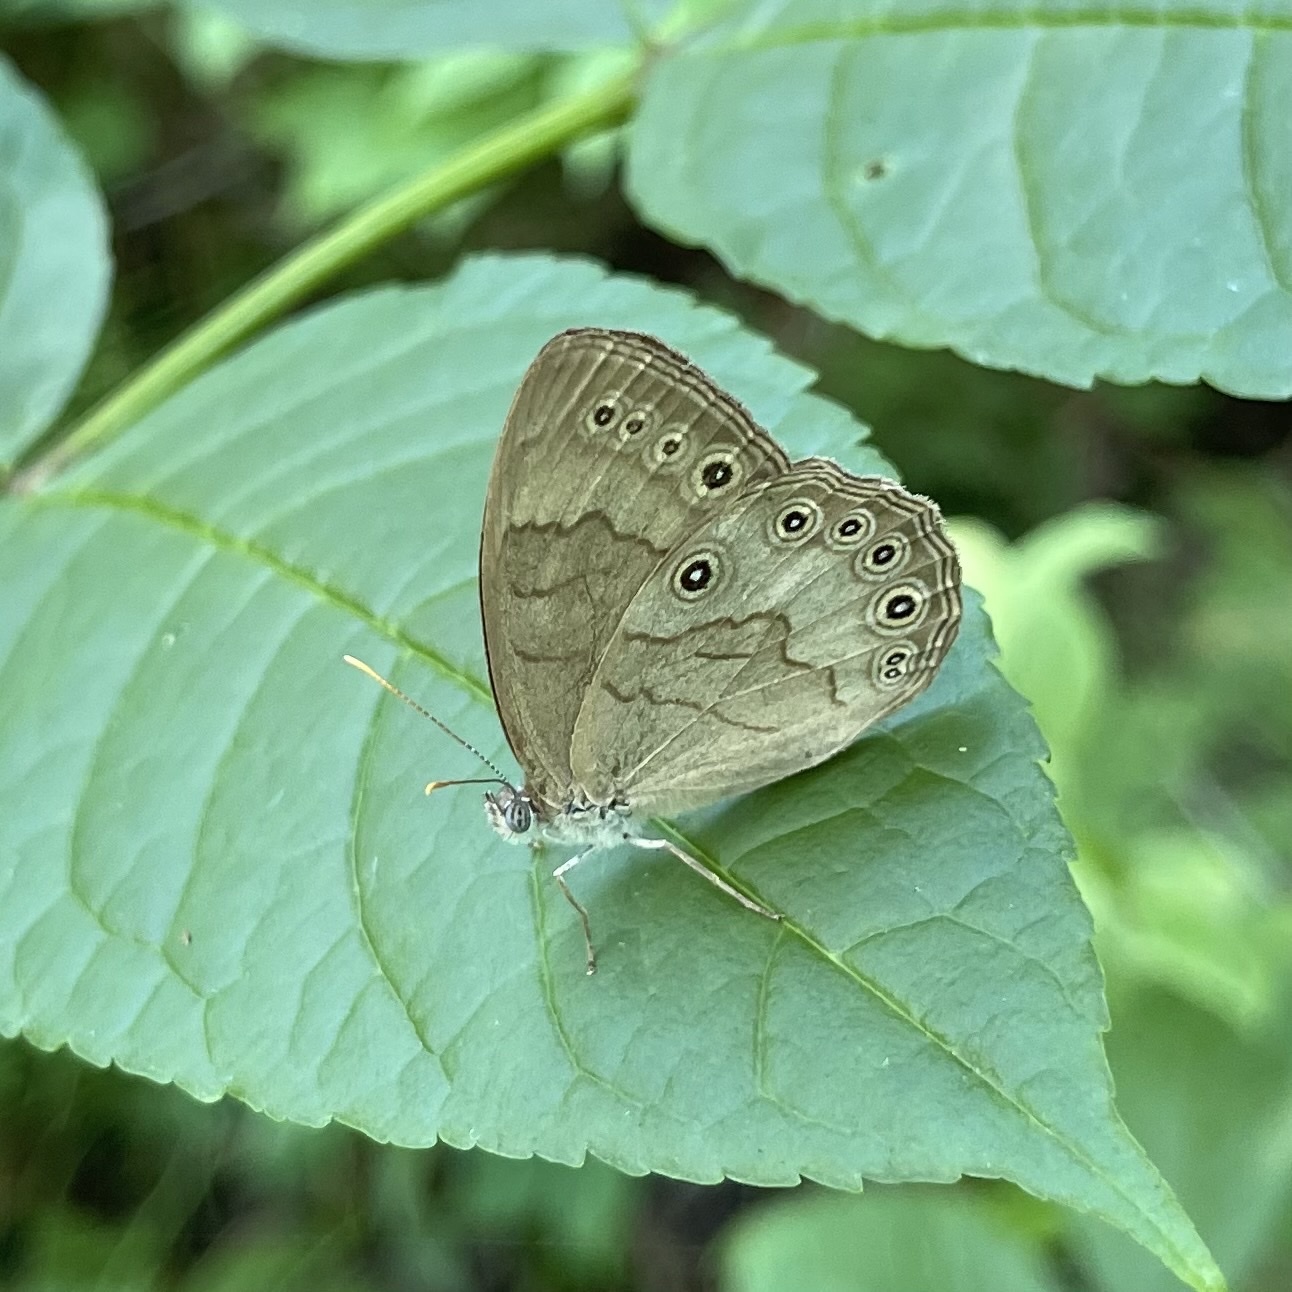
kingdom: Animalia
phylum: Arthropoda
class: Insecta
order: Lepidoptera
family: Nymphalidae
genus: Lethe
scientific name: Lethe eurydice
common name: Eyed brown
